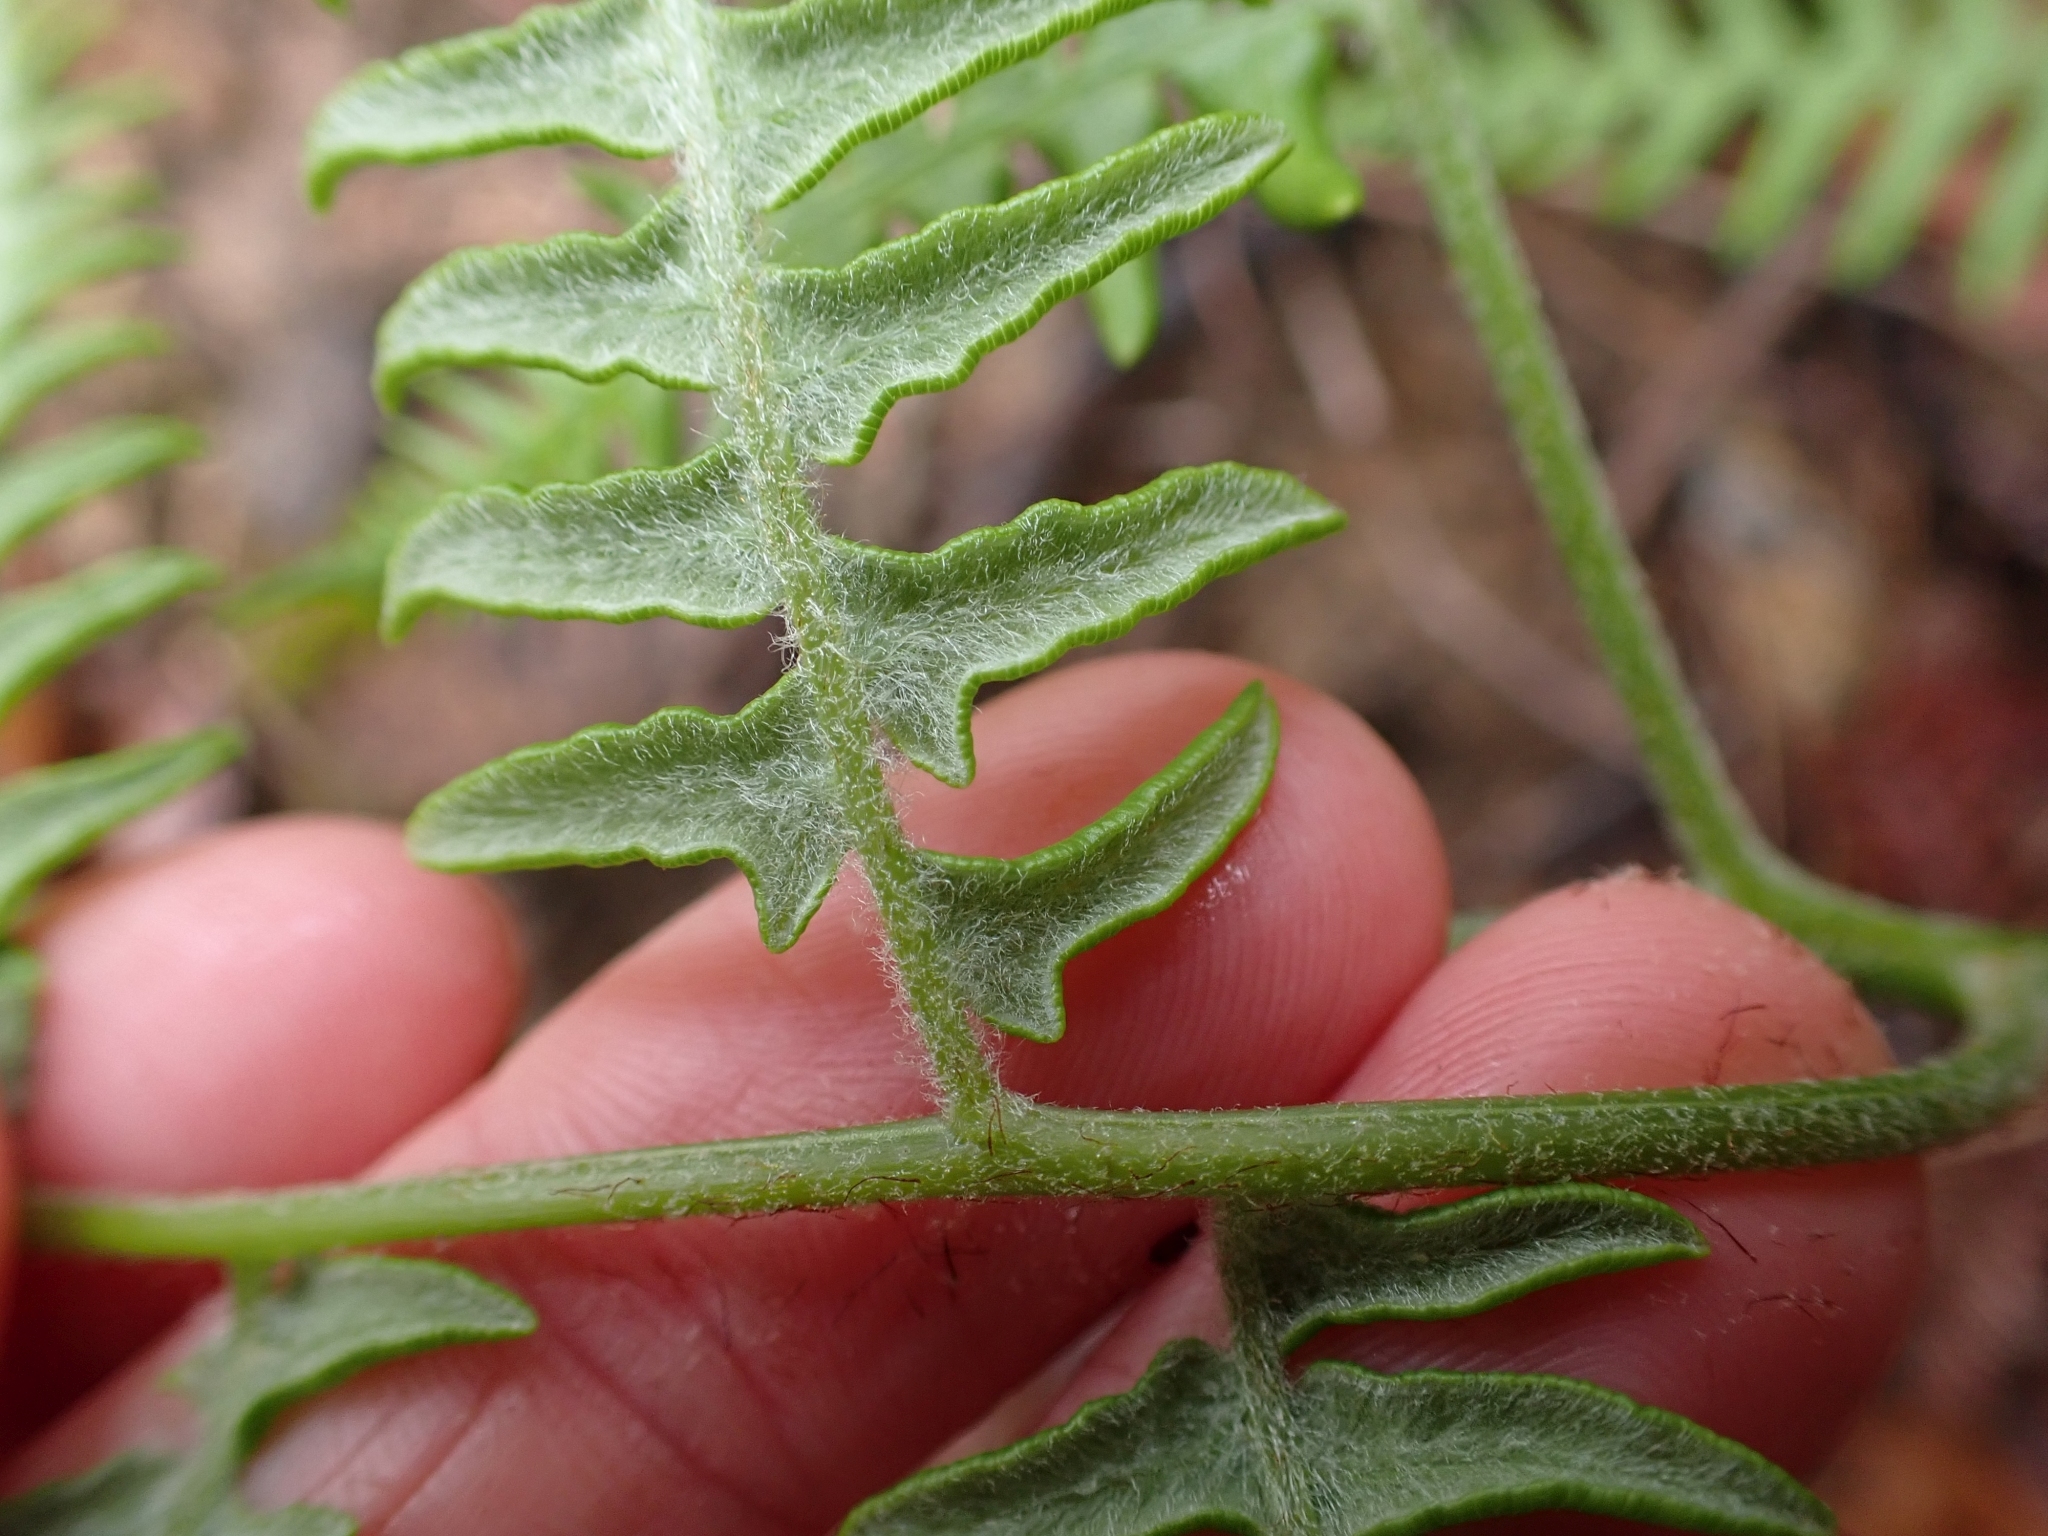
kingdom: Plantae
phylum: Tracheophyta
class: Polypodiopsida
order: Polypodiales
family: Dennstaedtiaceae
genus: Pteridium
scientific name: Pteridium aquilinum
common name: Bracken
